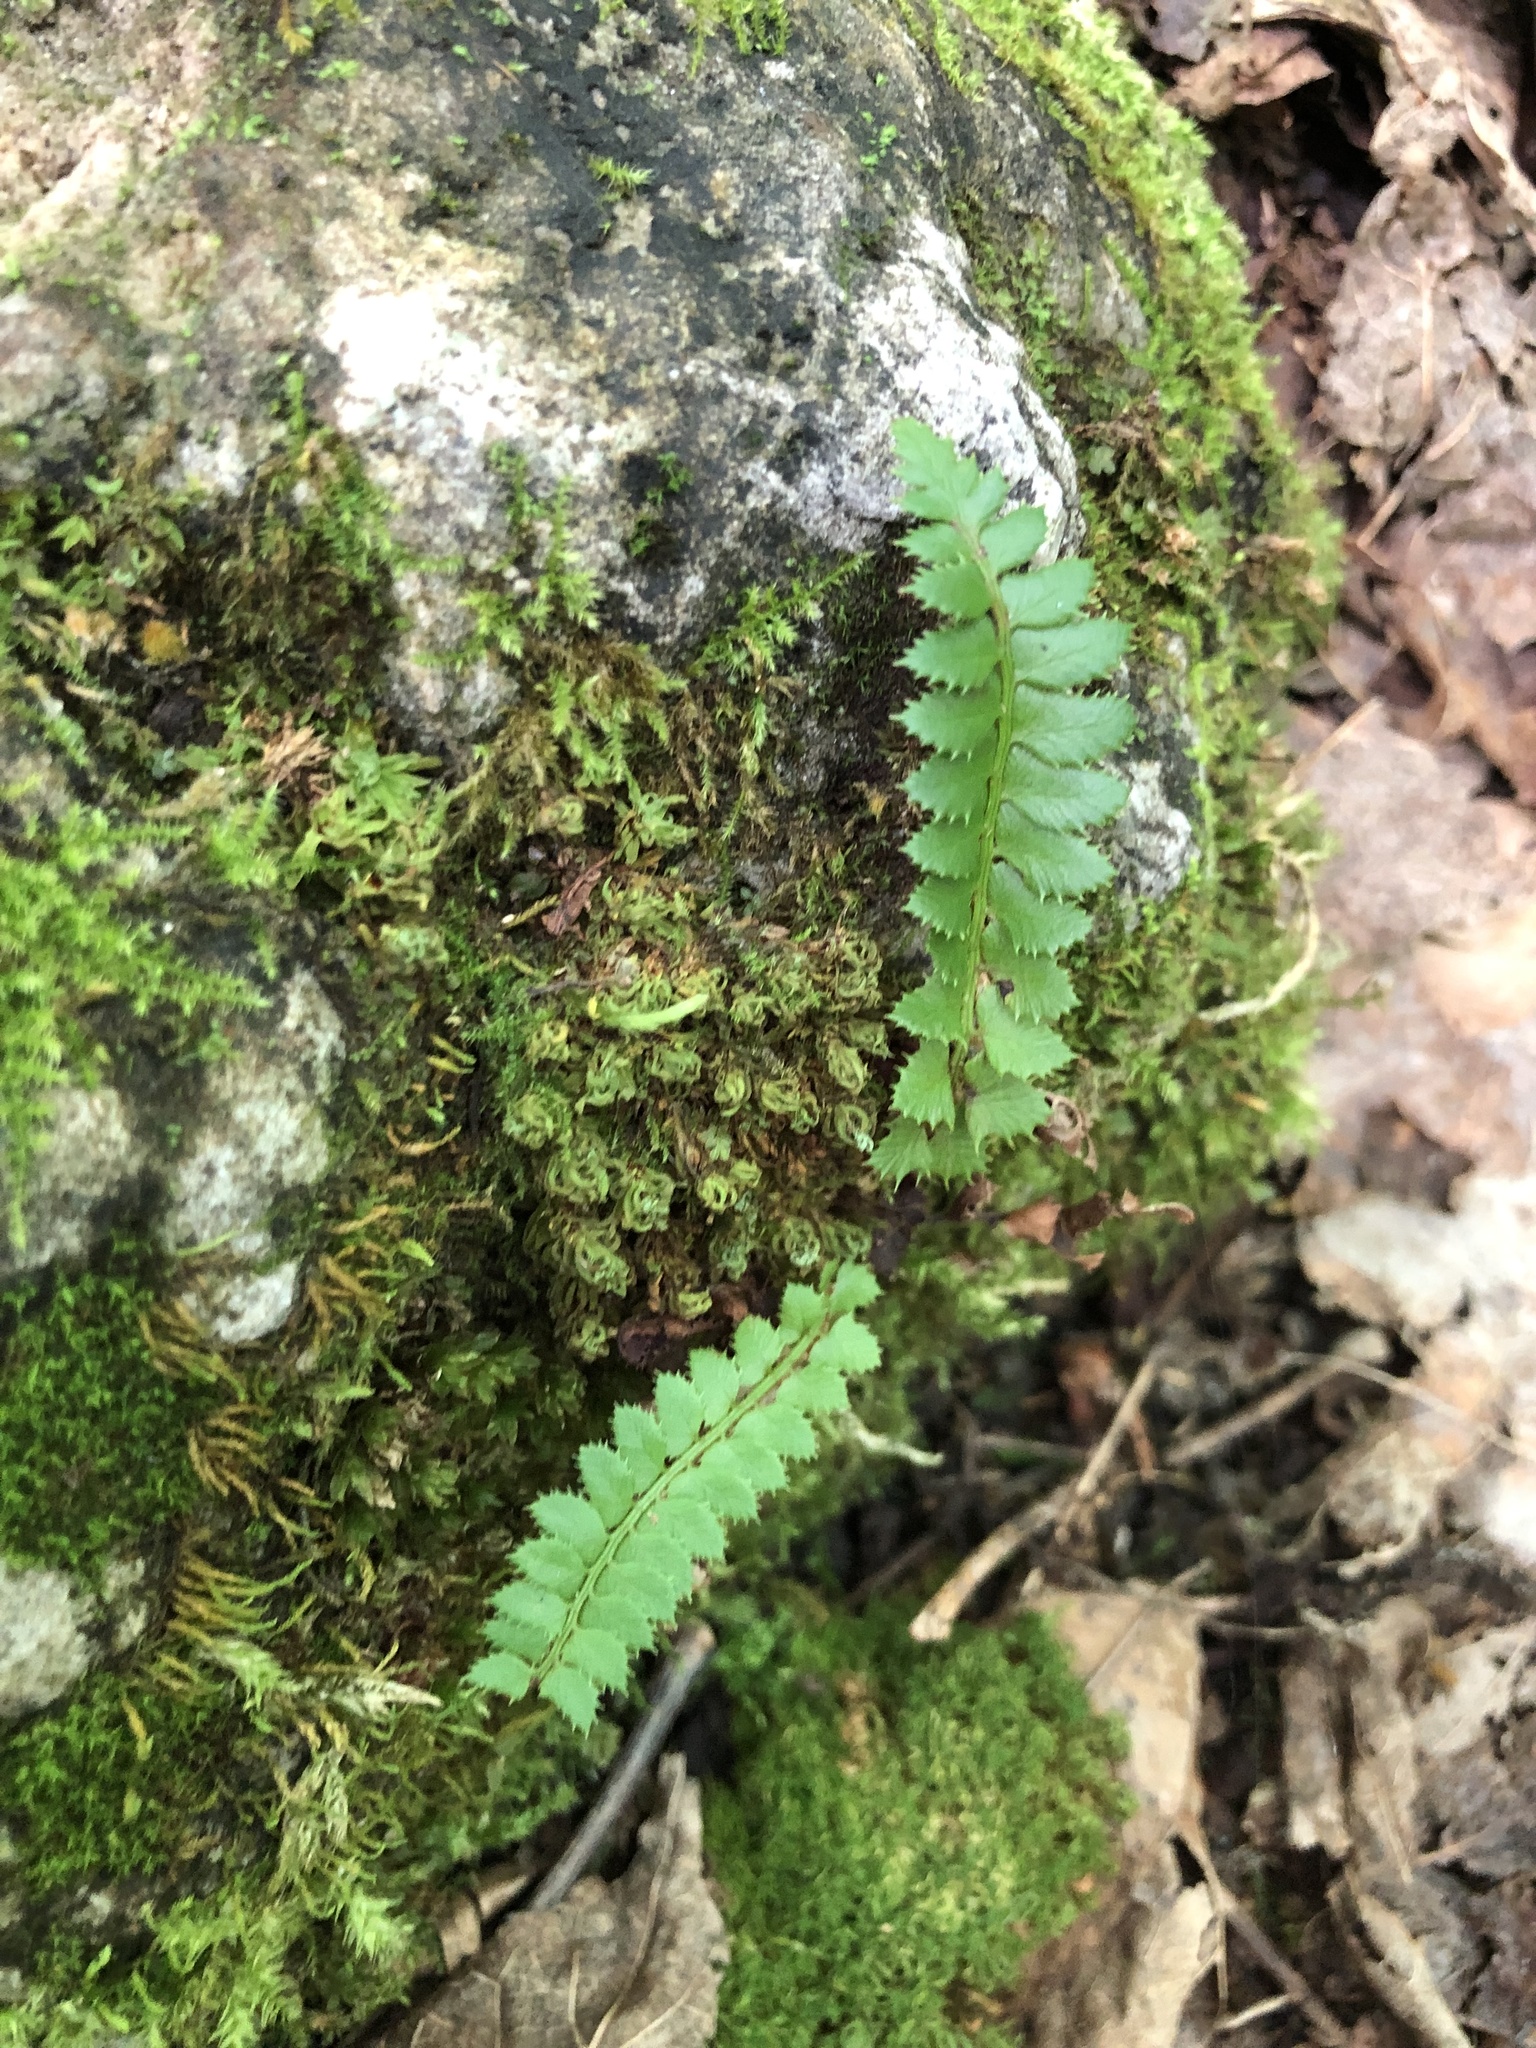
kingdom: Plantae
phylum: Tracheophyta
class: Polypodiopsida
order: Polypodiales
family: Dryopteridaceae
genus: Polystichum
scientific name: Polystichum lonchitis
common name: Holly fern
